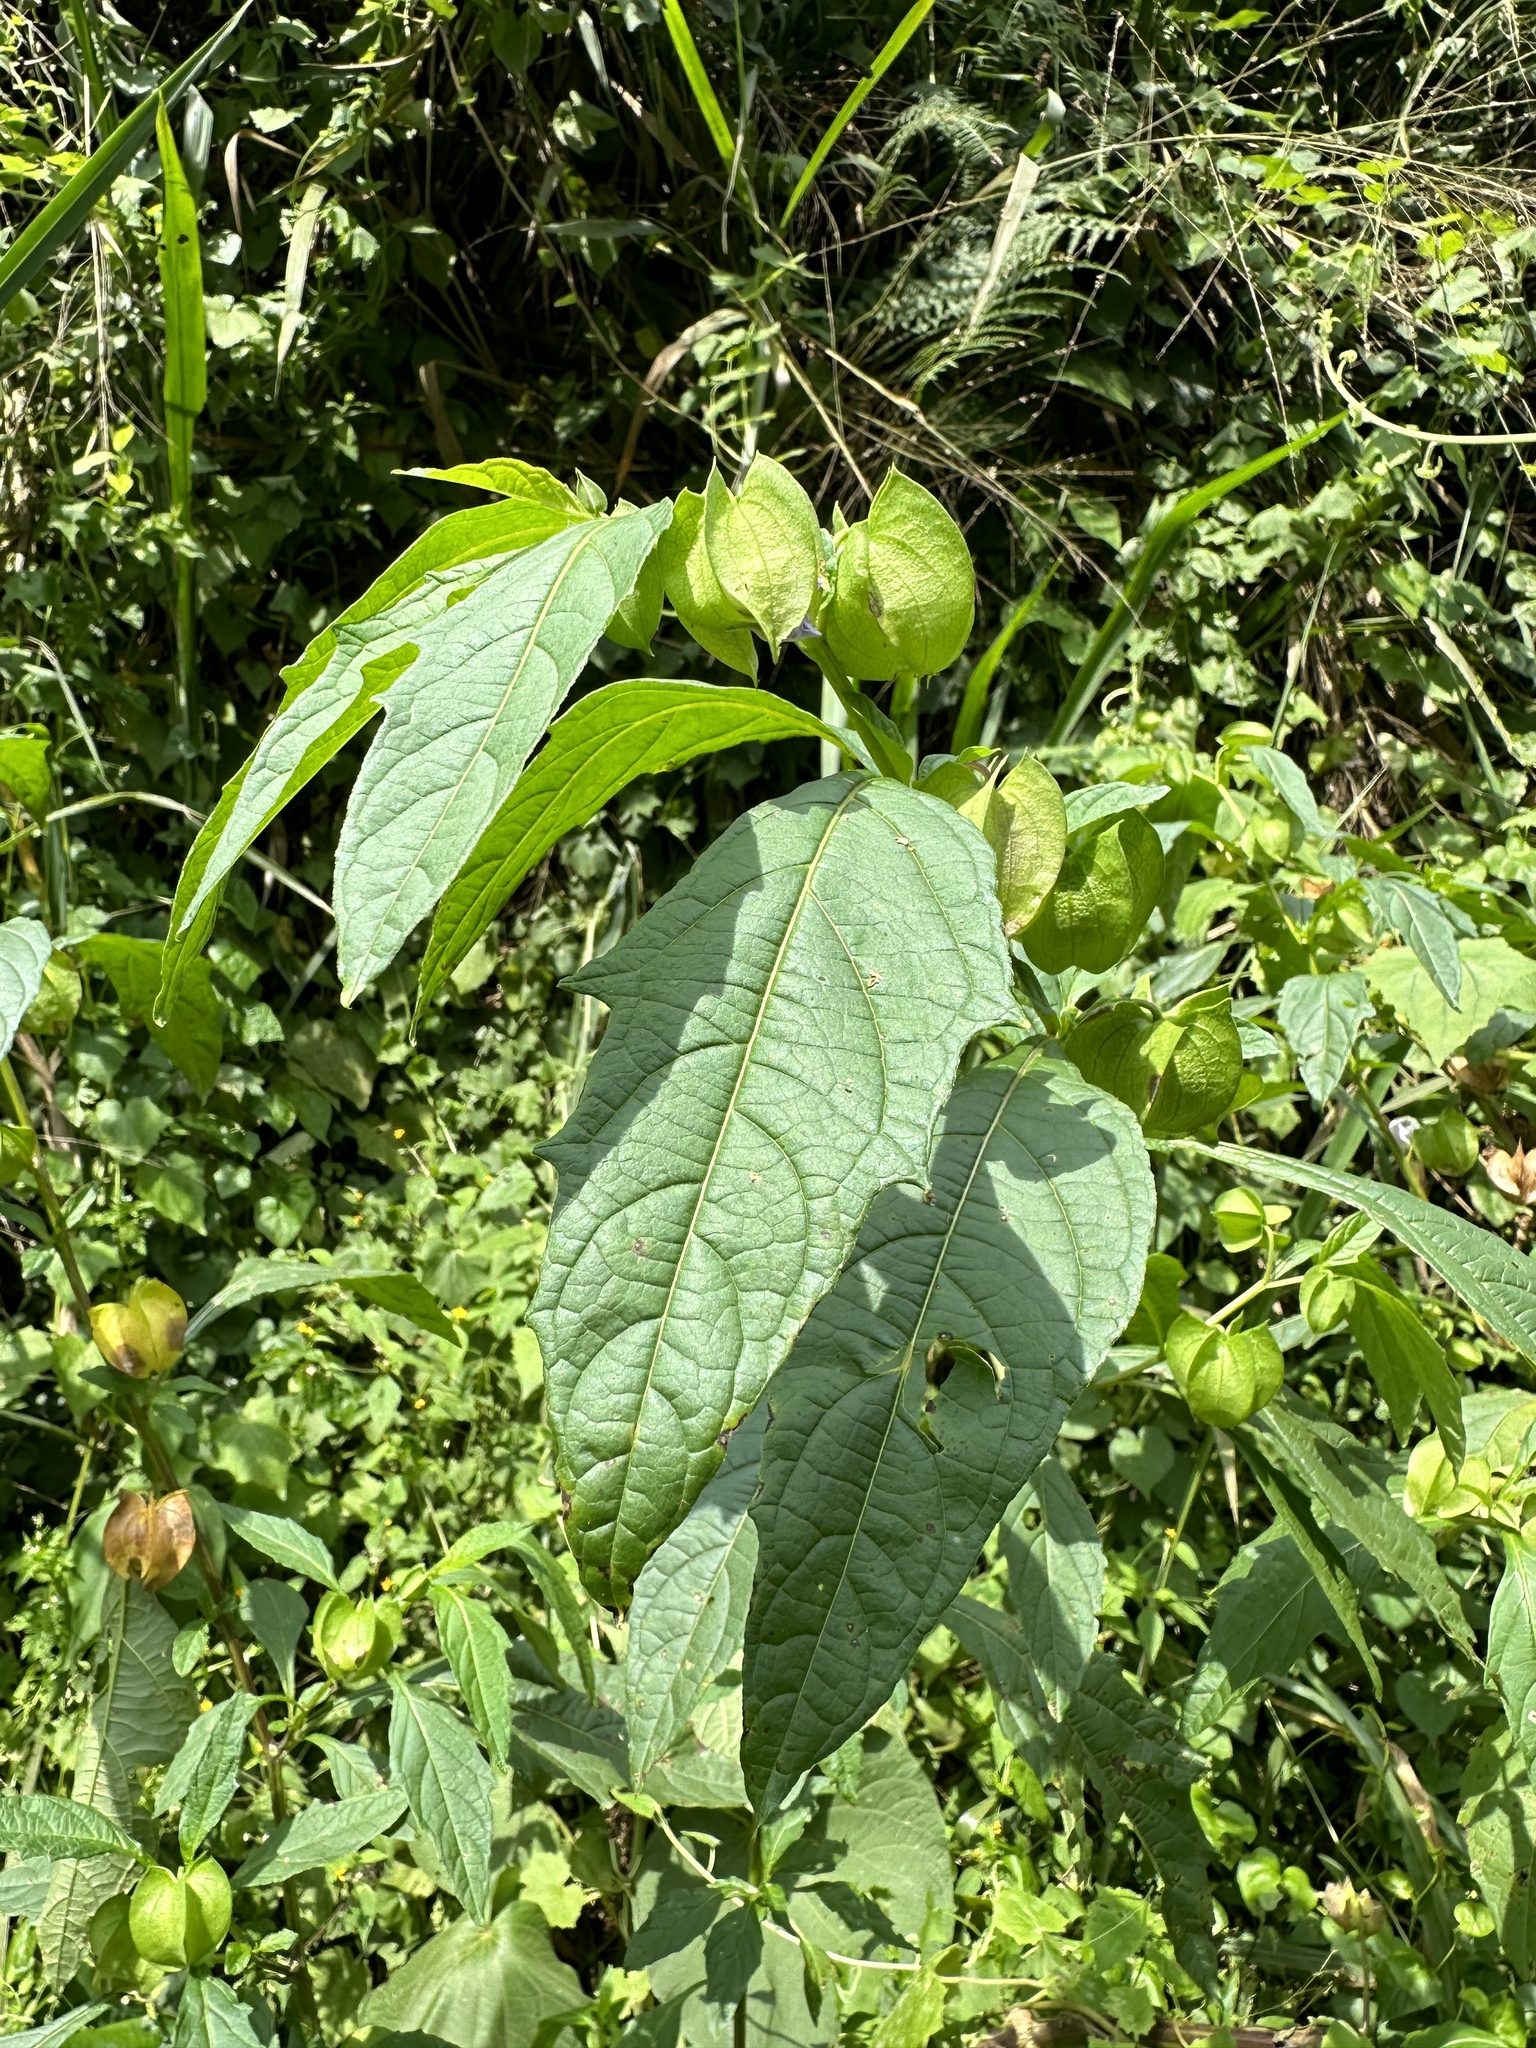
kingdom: Plantae
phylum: Tracheophyta
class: Magnoliopsida
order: Solanales
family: Solanaceae
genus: Nicandra
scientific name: Nicandra physalodes
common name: Apple-of-peru
